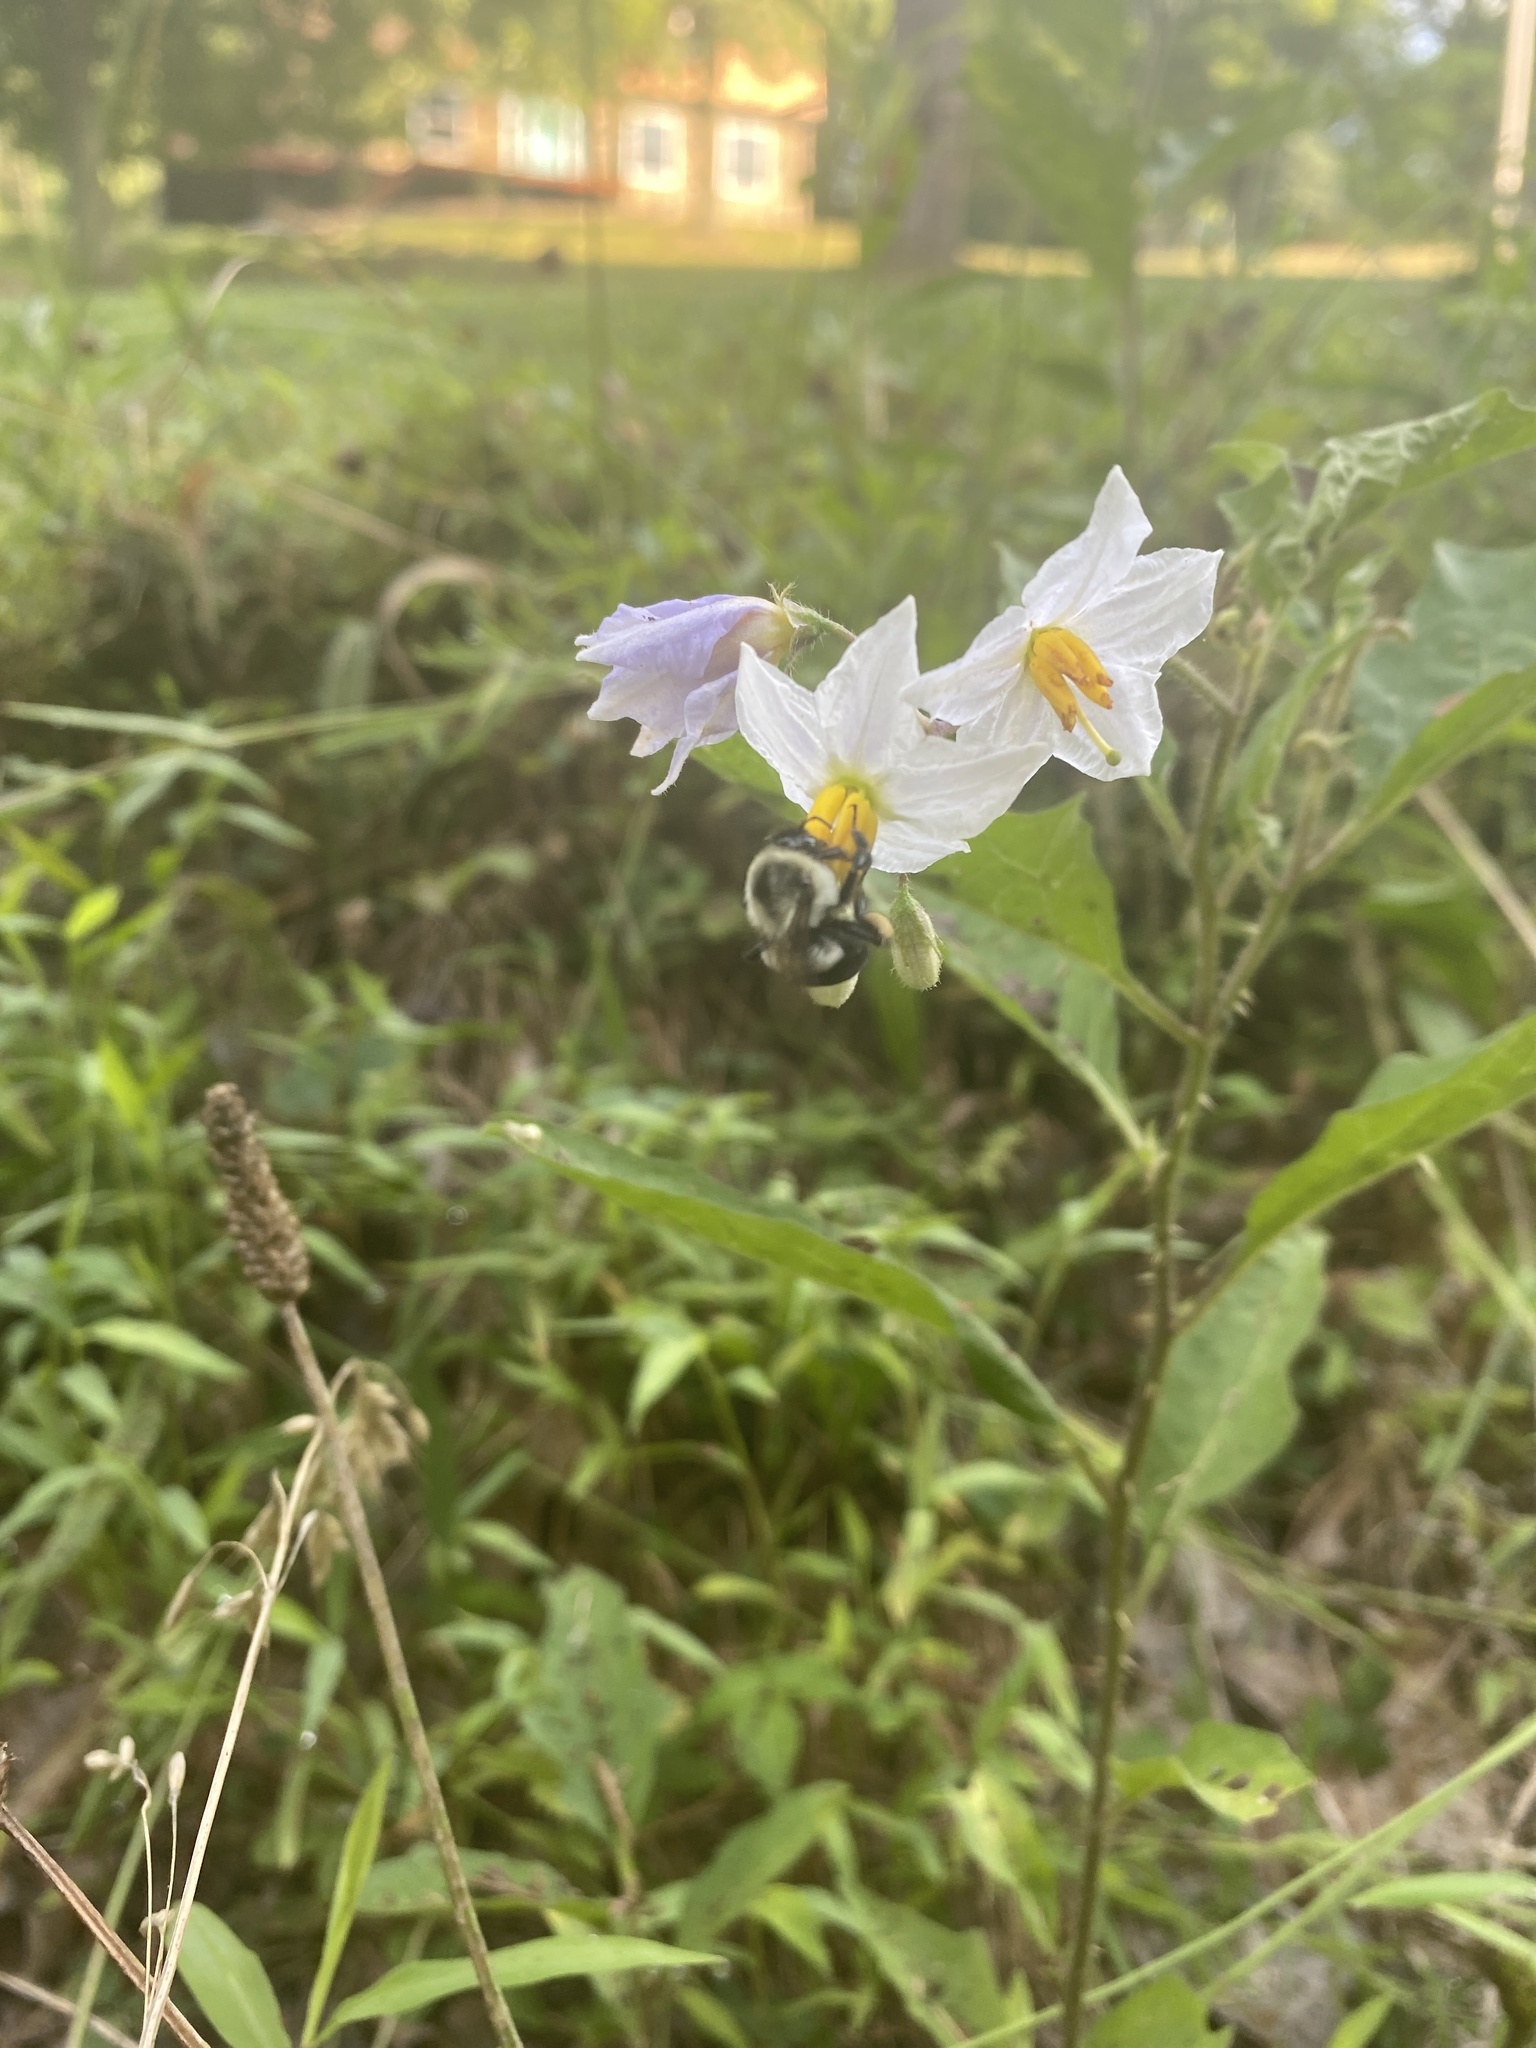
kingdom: Animalia
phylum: Arthropoda
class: Insecta
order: Hymenoptera
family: Apidae
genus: Bombus
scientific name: Bombus impatiens
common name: Common eastern bumble bee
